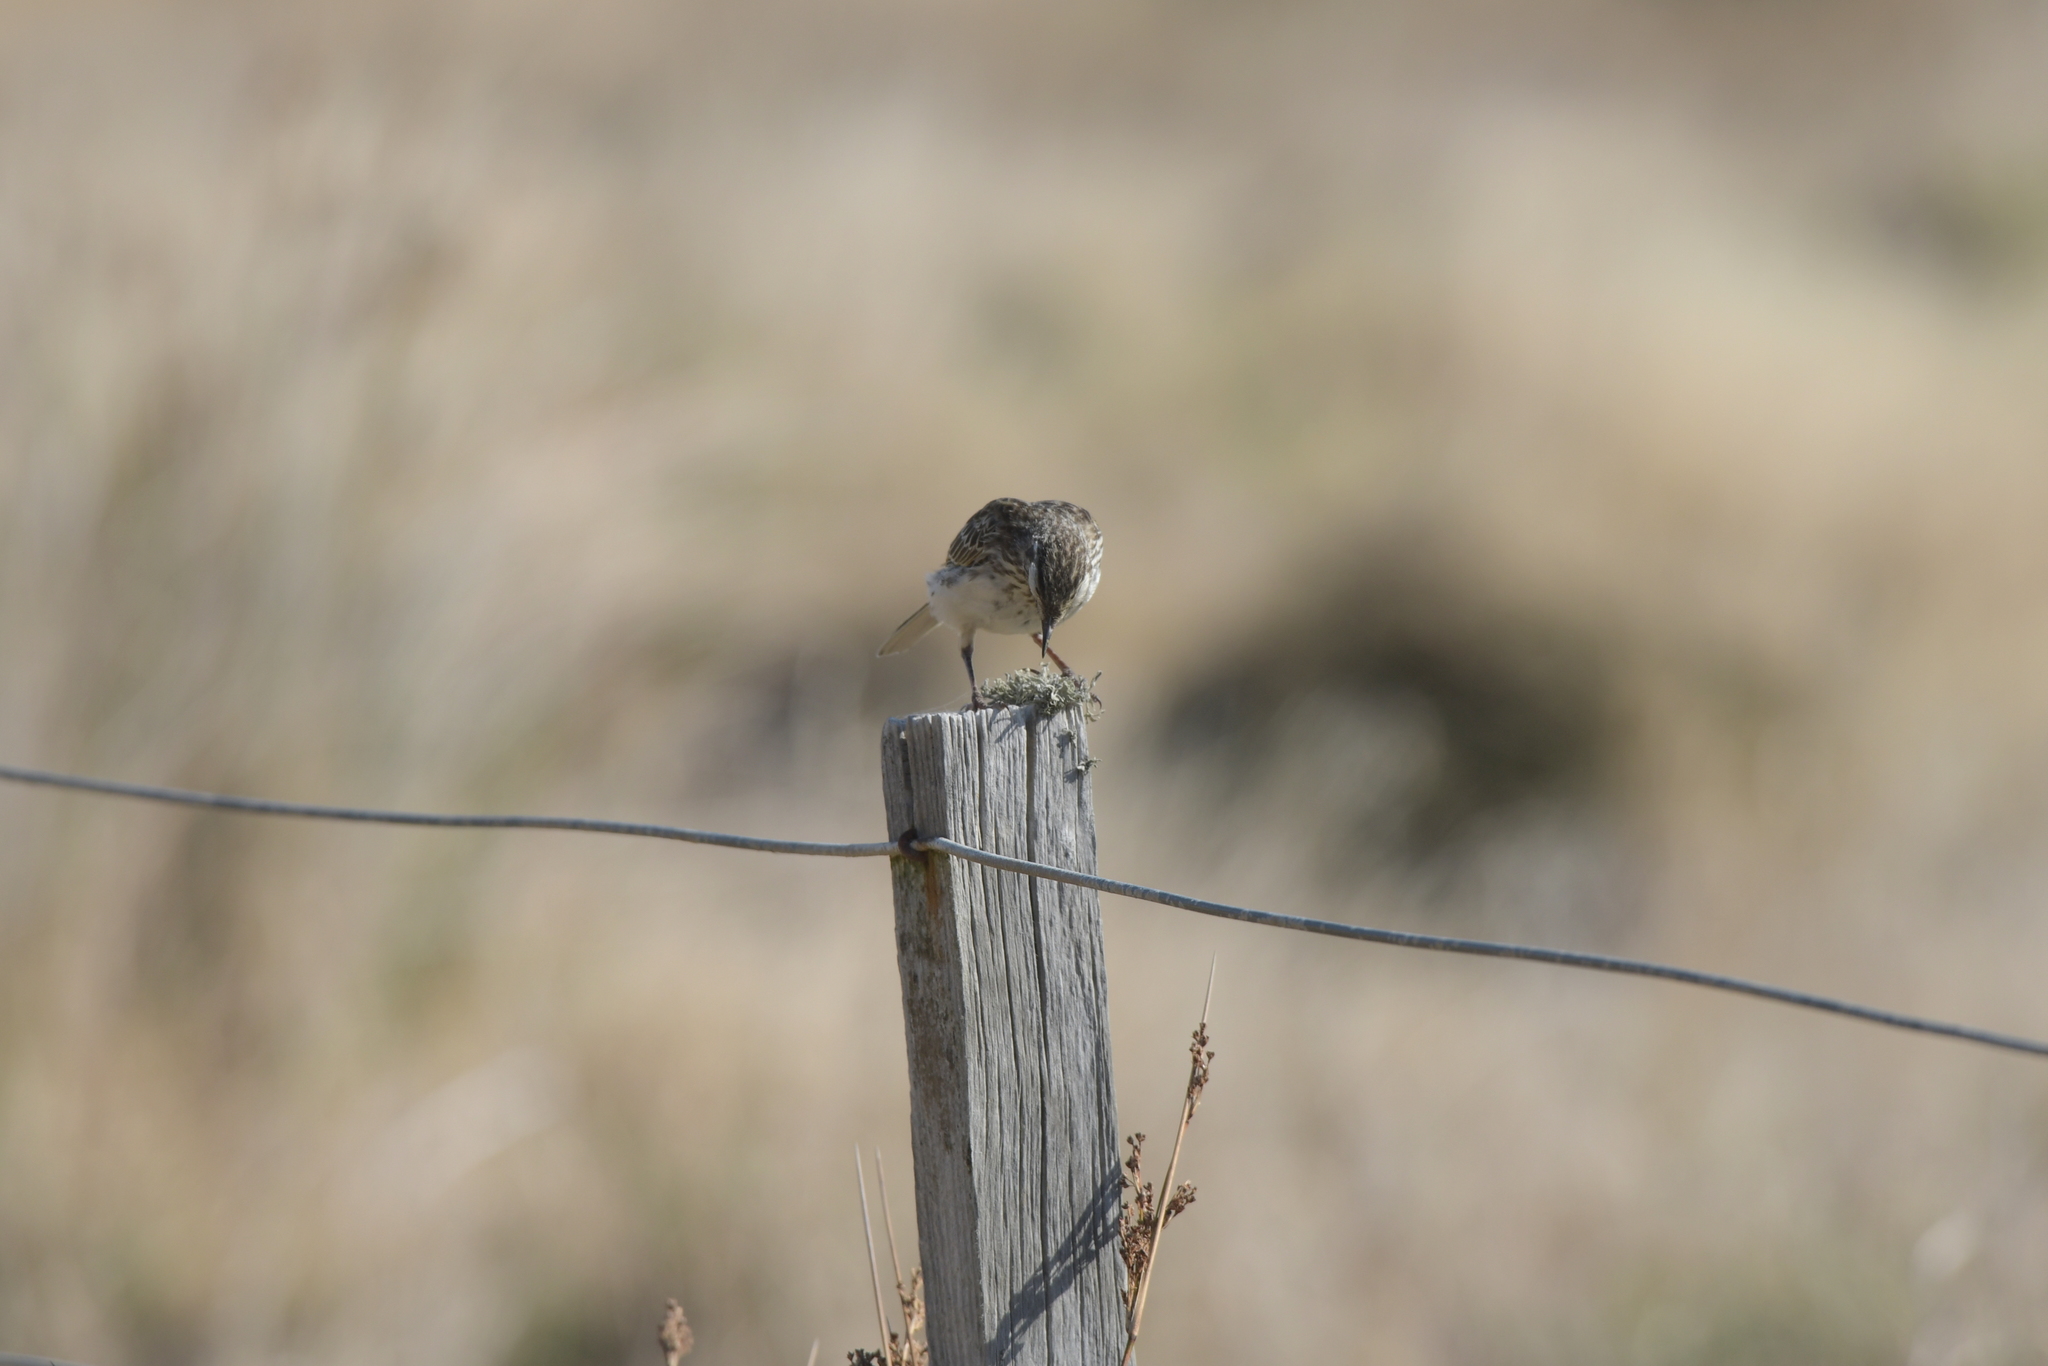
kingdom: Animalia
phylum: Chordata
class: Aves
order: Passeriformes
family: Motacillidae
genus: Anthus
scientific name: Anthus novaeseelandiae
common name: New zealand pipit
